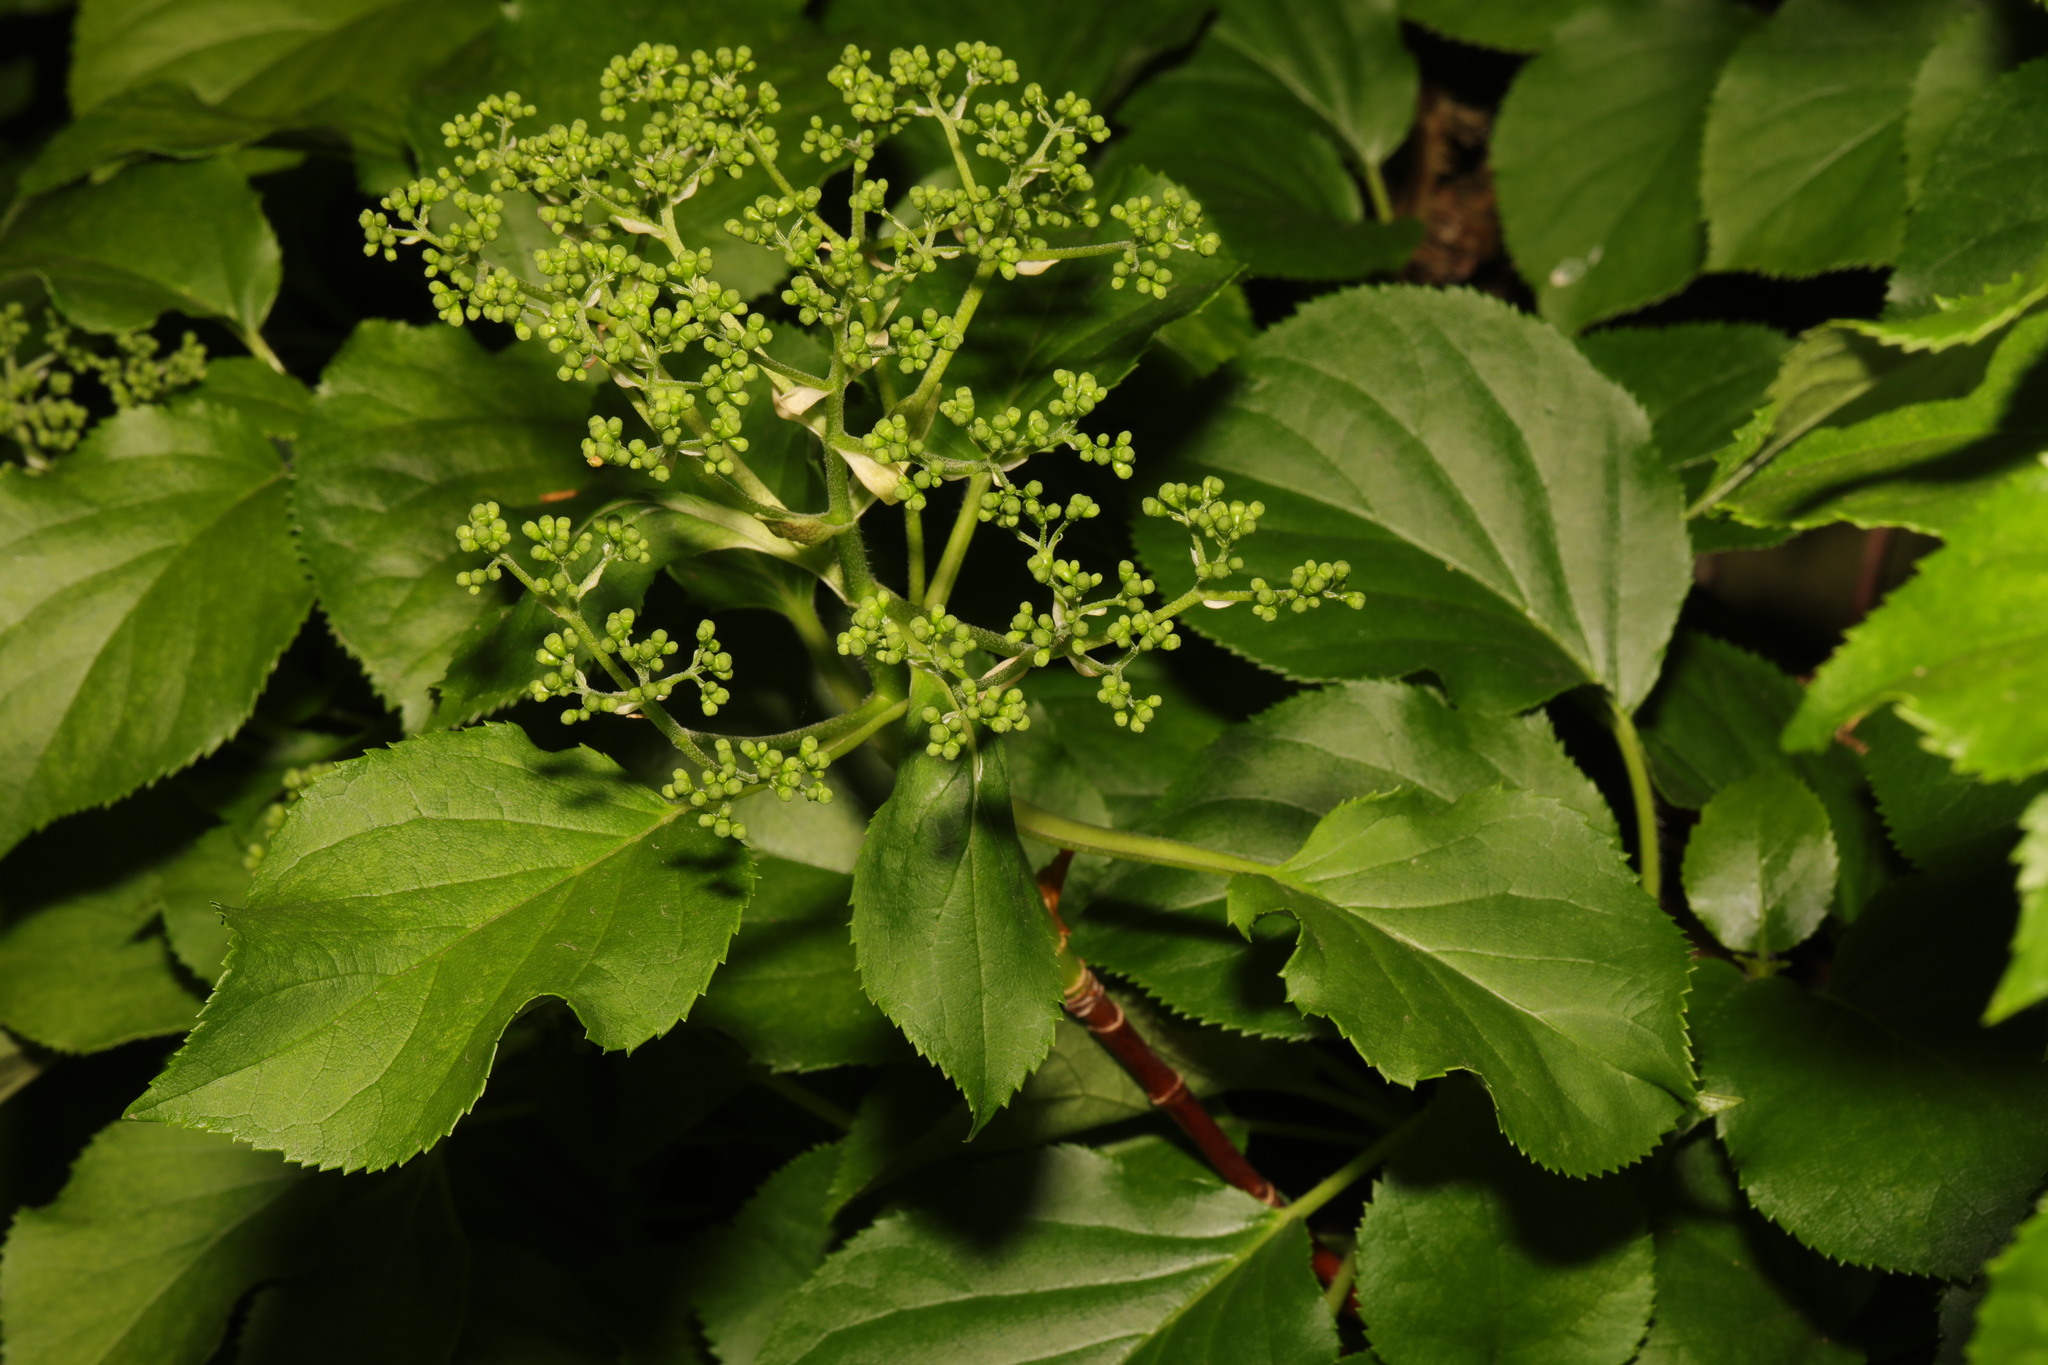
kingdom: Plantae
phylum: Tracheophyta
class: Magnoliopsida
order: Cornales
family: Hydrangeaceae
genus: Hydrangea
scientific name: Hydrangea petiolaris
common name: Japanese climbing hydrangea
